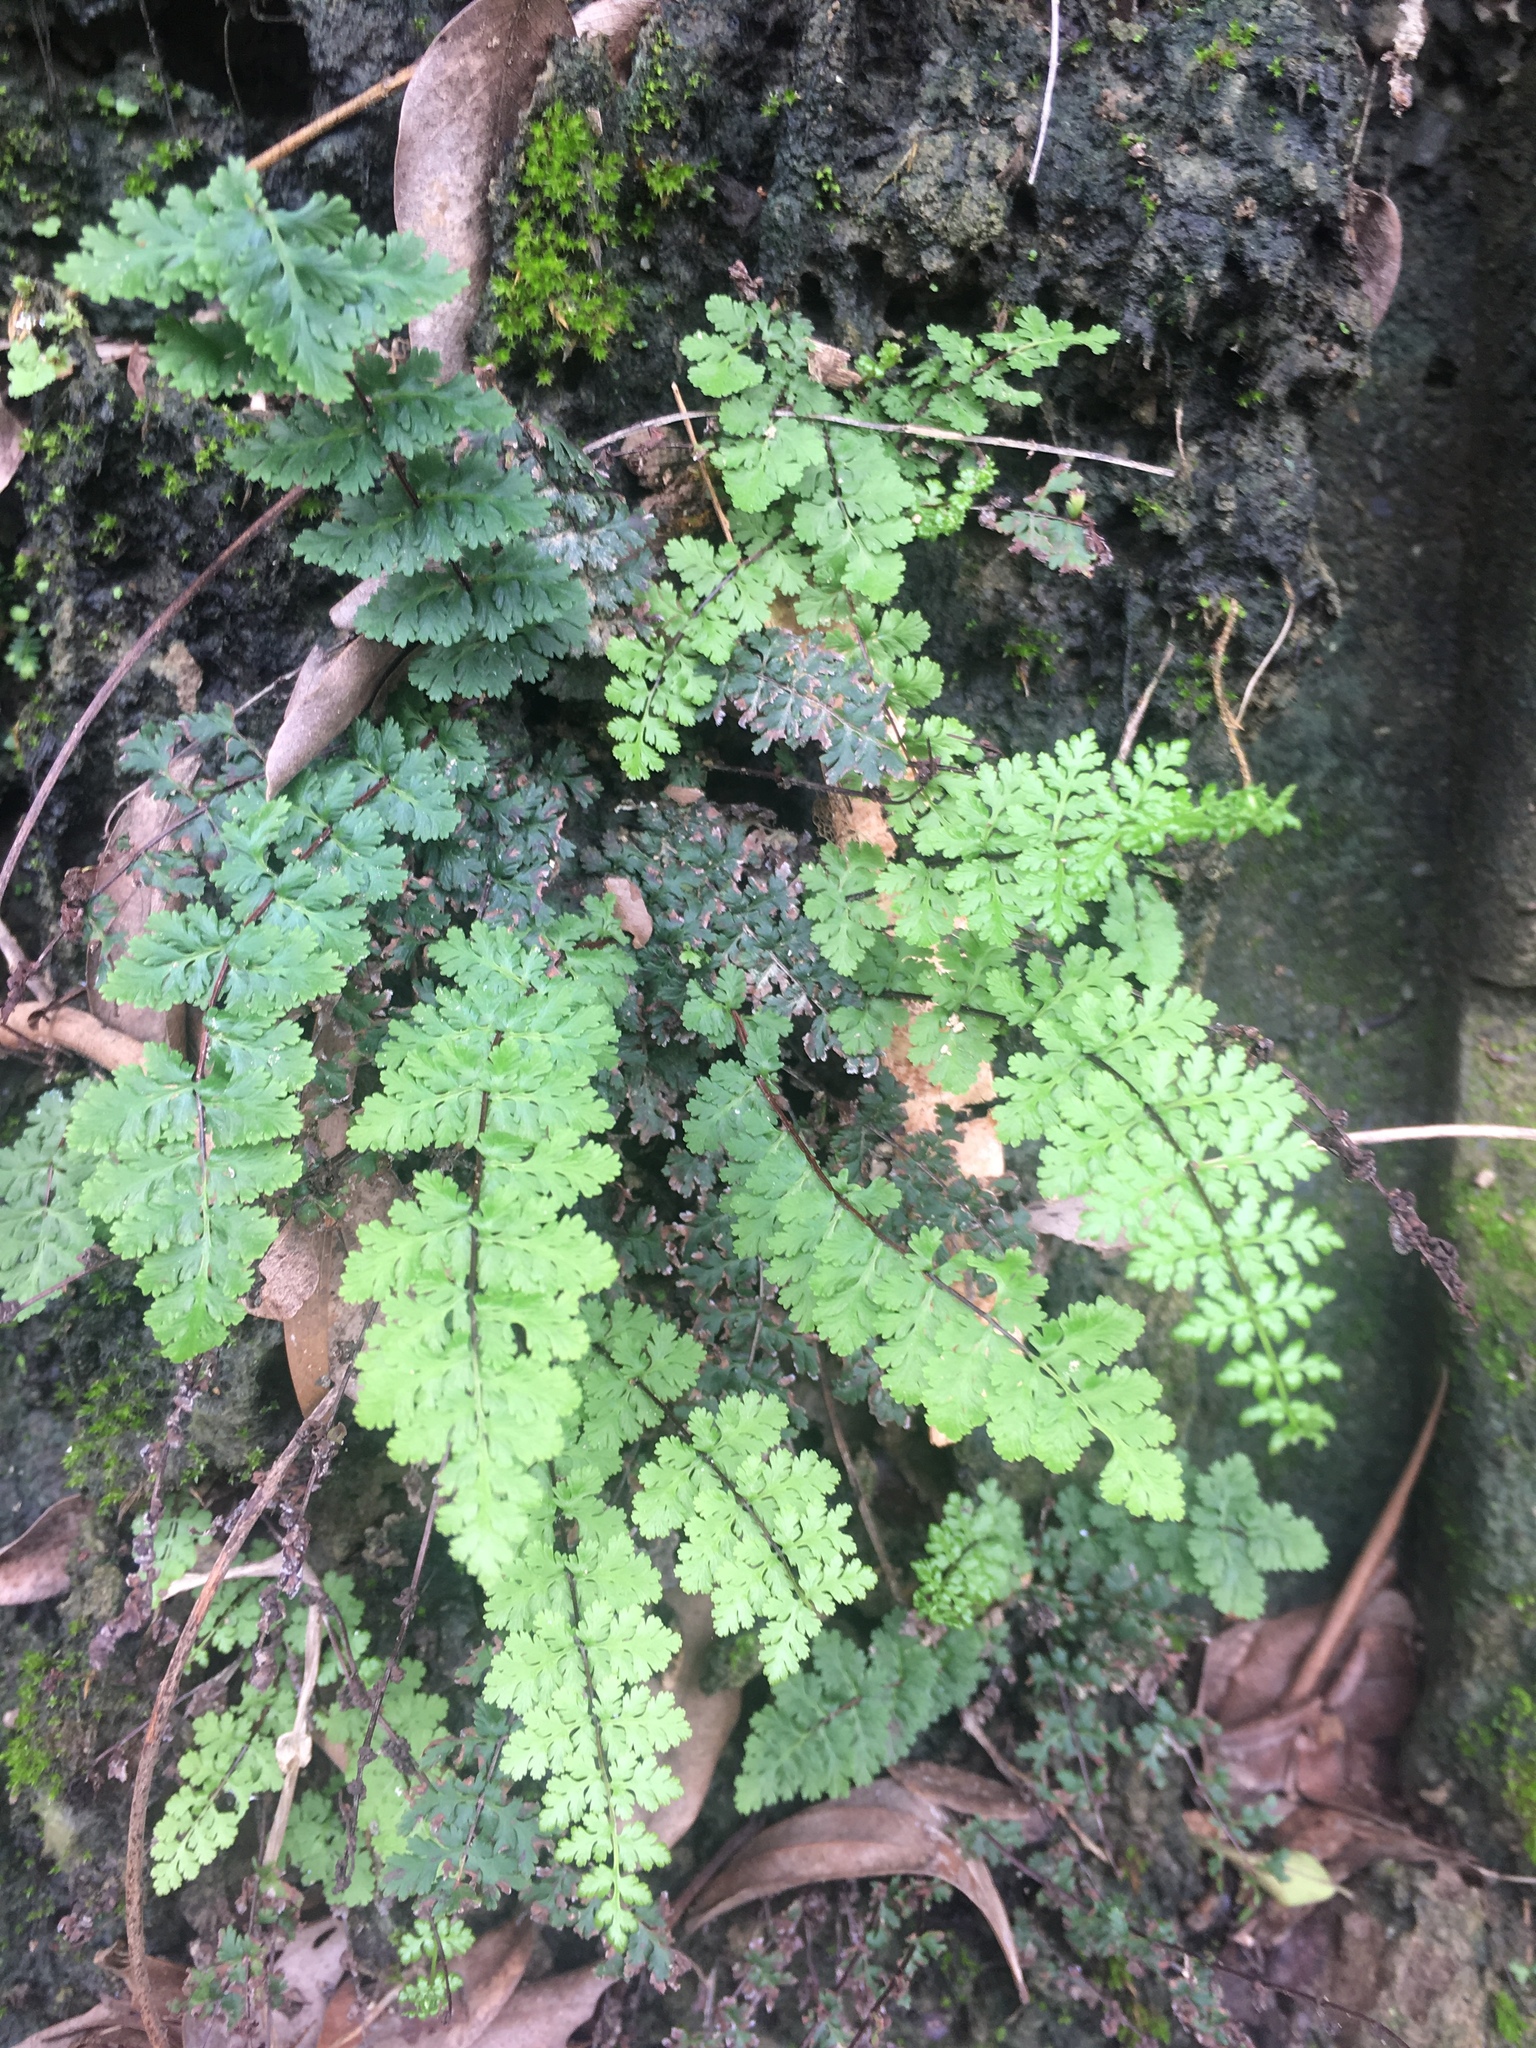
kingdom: Plantae
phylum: Tracheophyta
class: Polypodiopsida
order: Polypodiales
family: Pteridaceae
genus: Oeosporangium
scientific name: Oeosporangium chusanum
